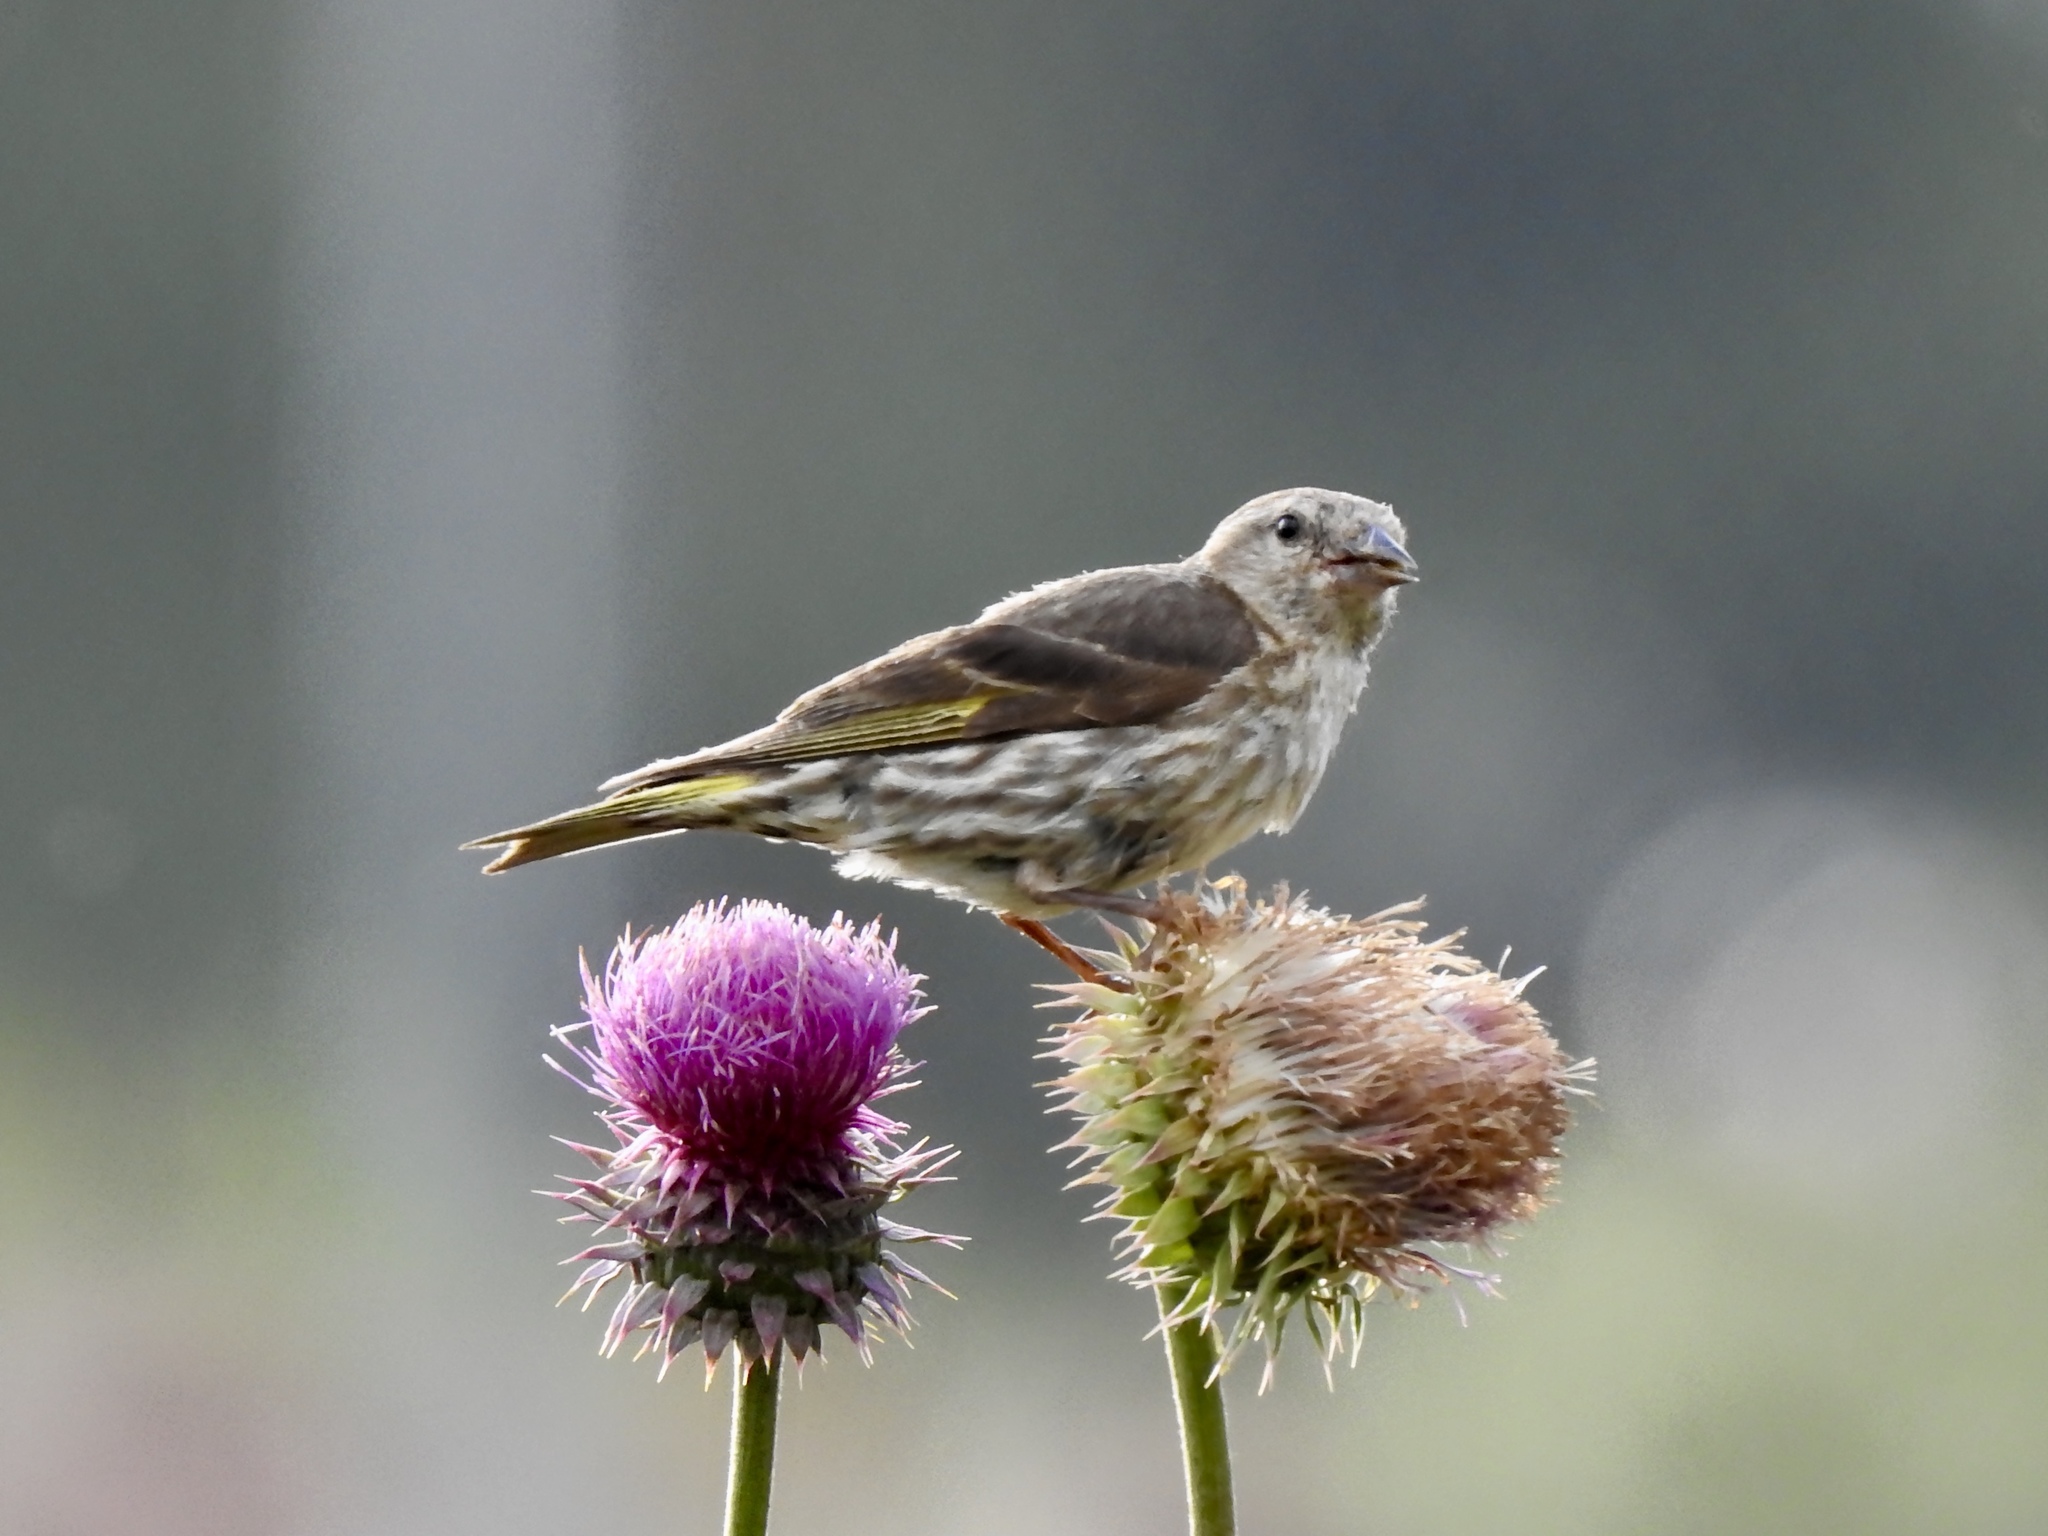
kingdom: Animalia
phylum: Chordata
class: Aves
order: Passeriformes
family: Fringillidae
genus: Spinus
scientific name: Spinus pinus
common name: Pine siskin
